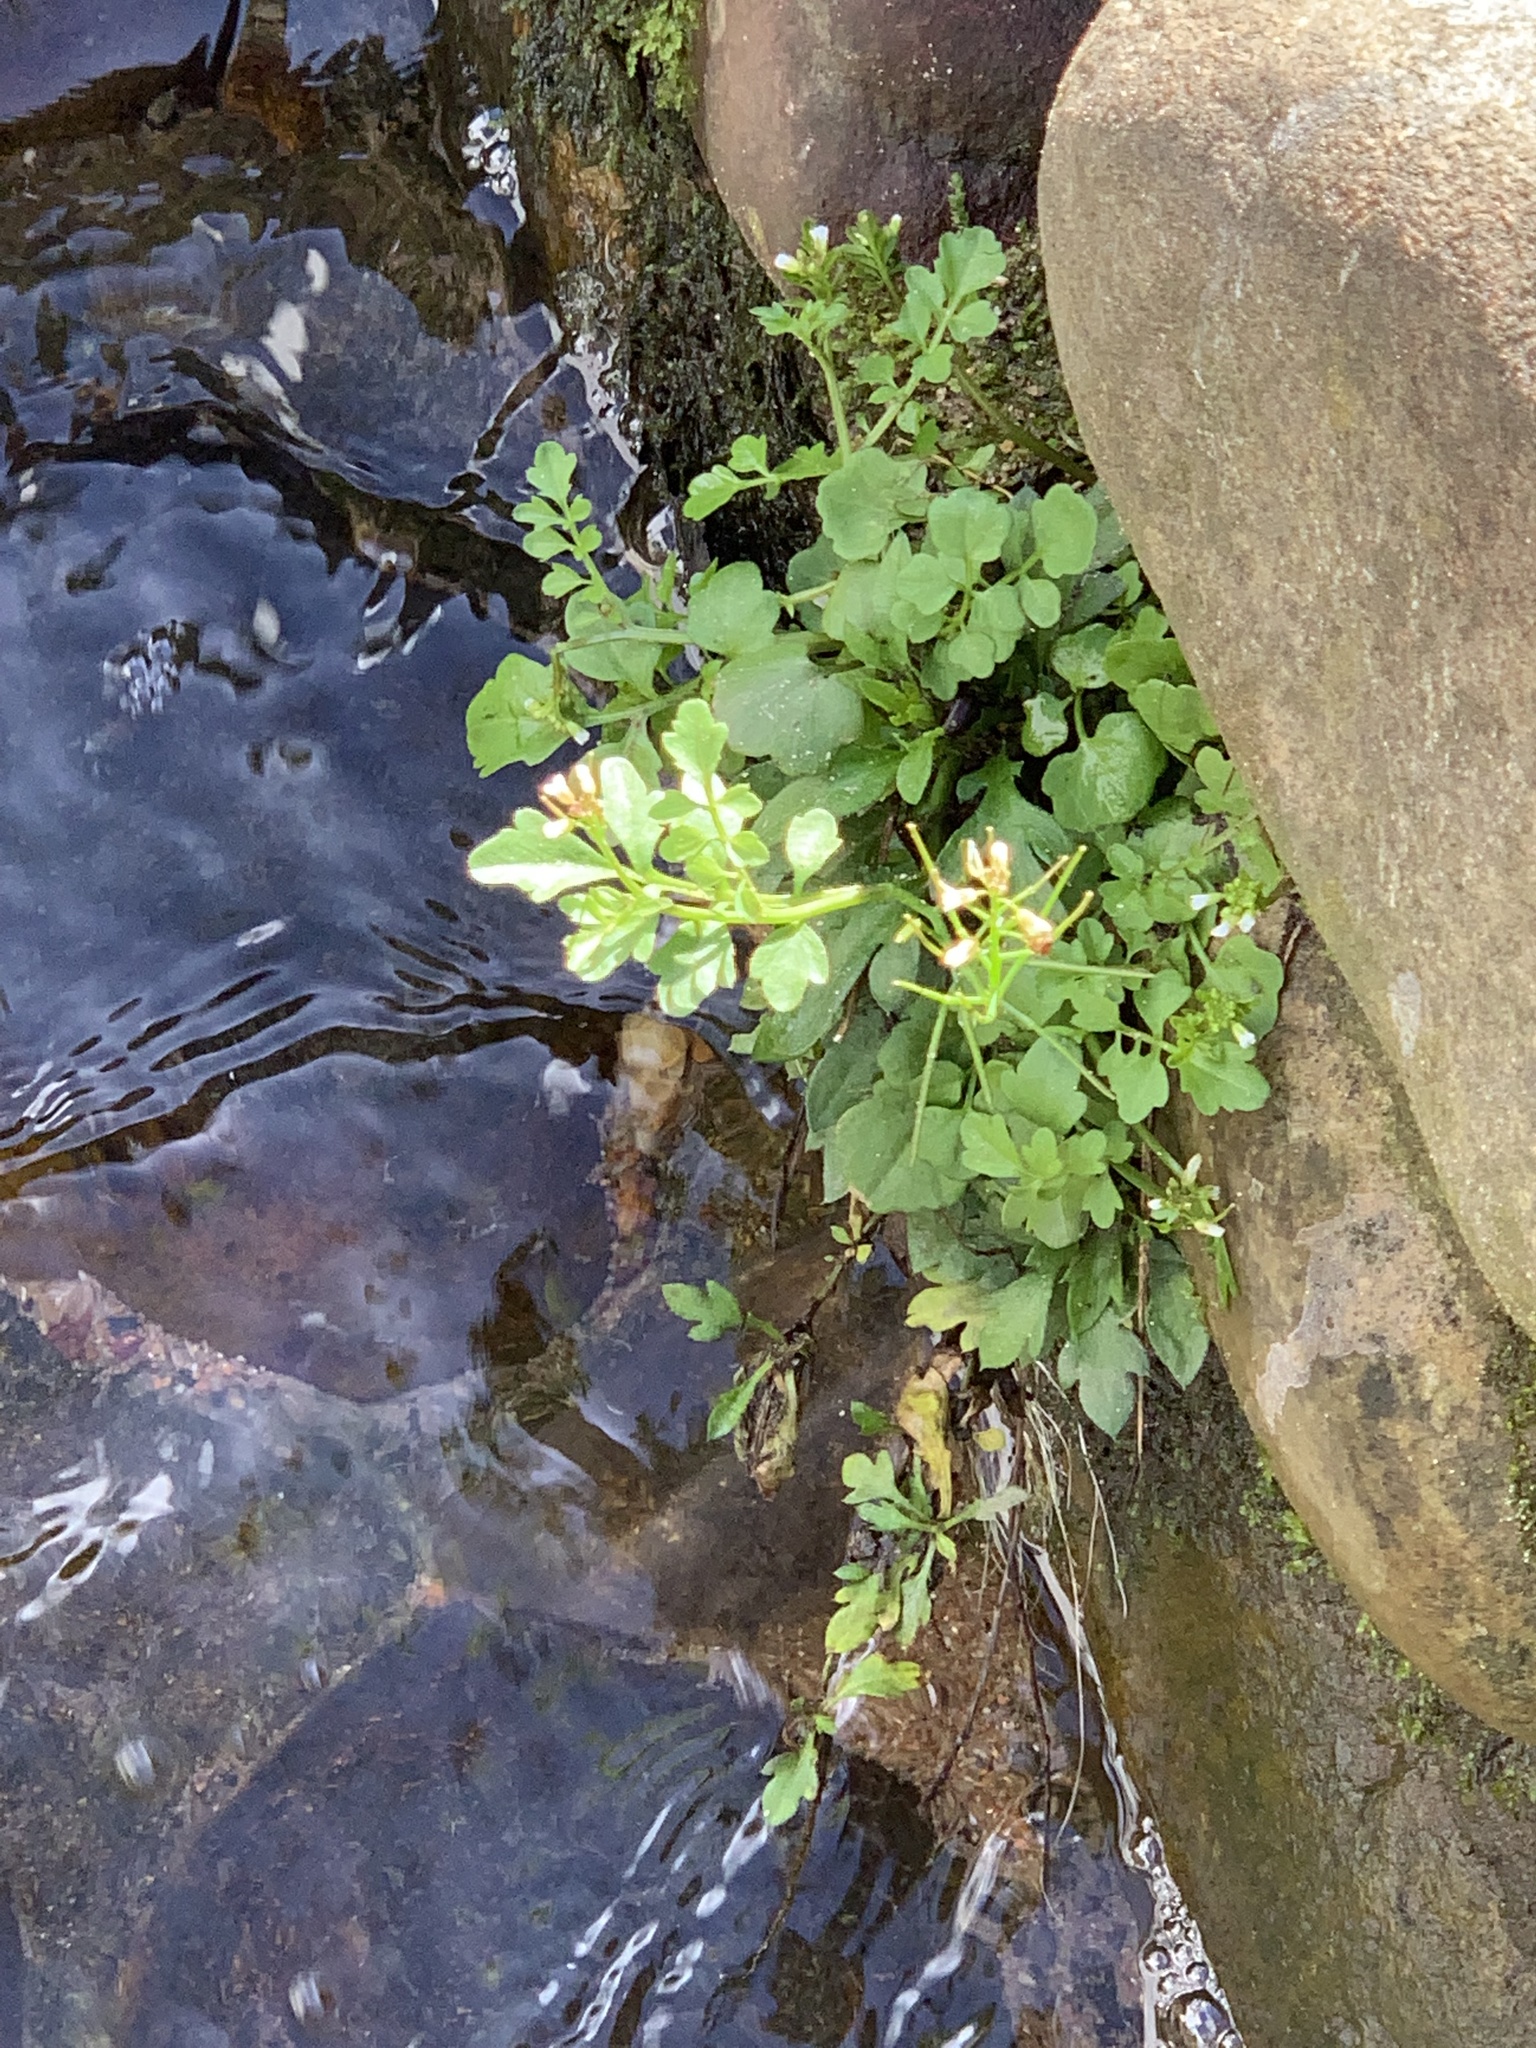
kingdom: Plantae
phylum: Tracheophyta
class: Magnoliopsida
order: Brassicales
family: Brassicaceae
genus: Cardamine
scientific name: Cardamine occulta
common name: Asian wavy bittercress
